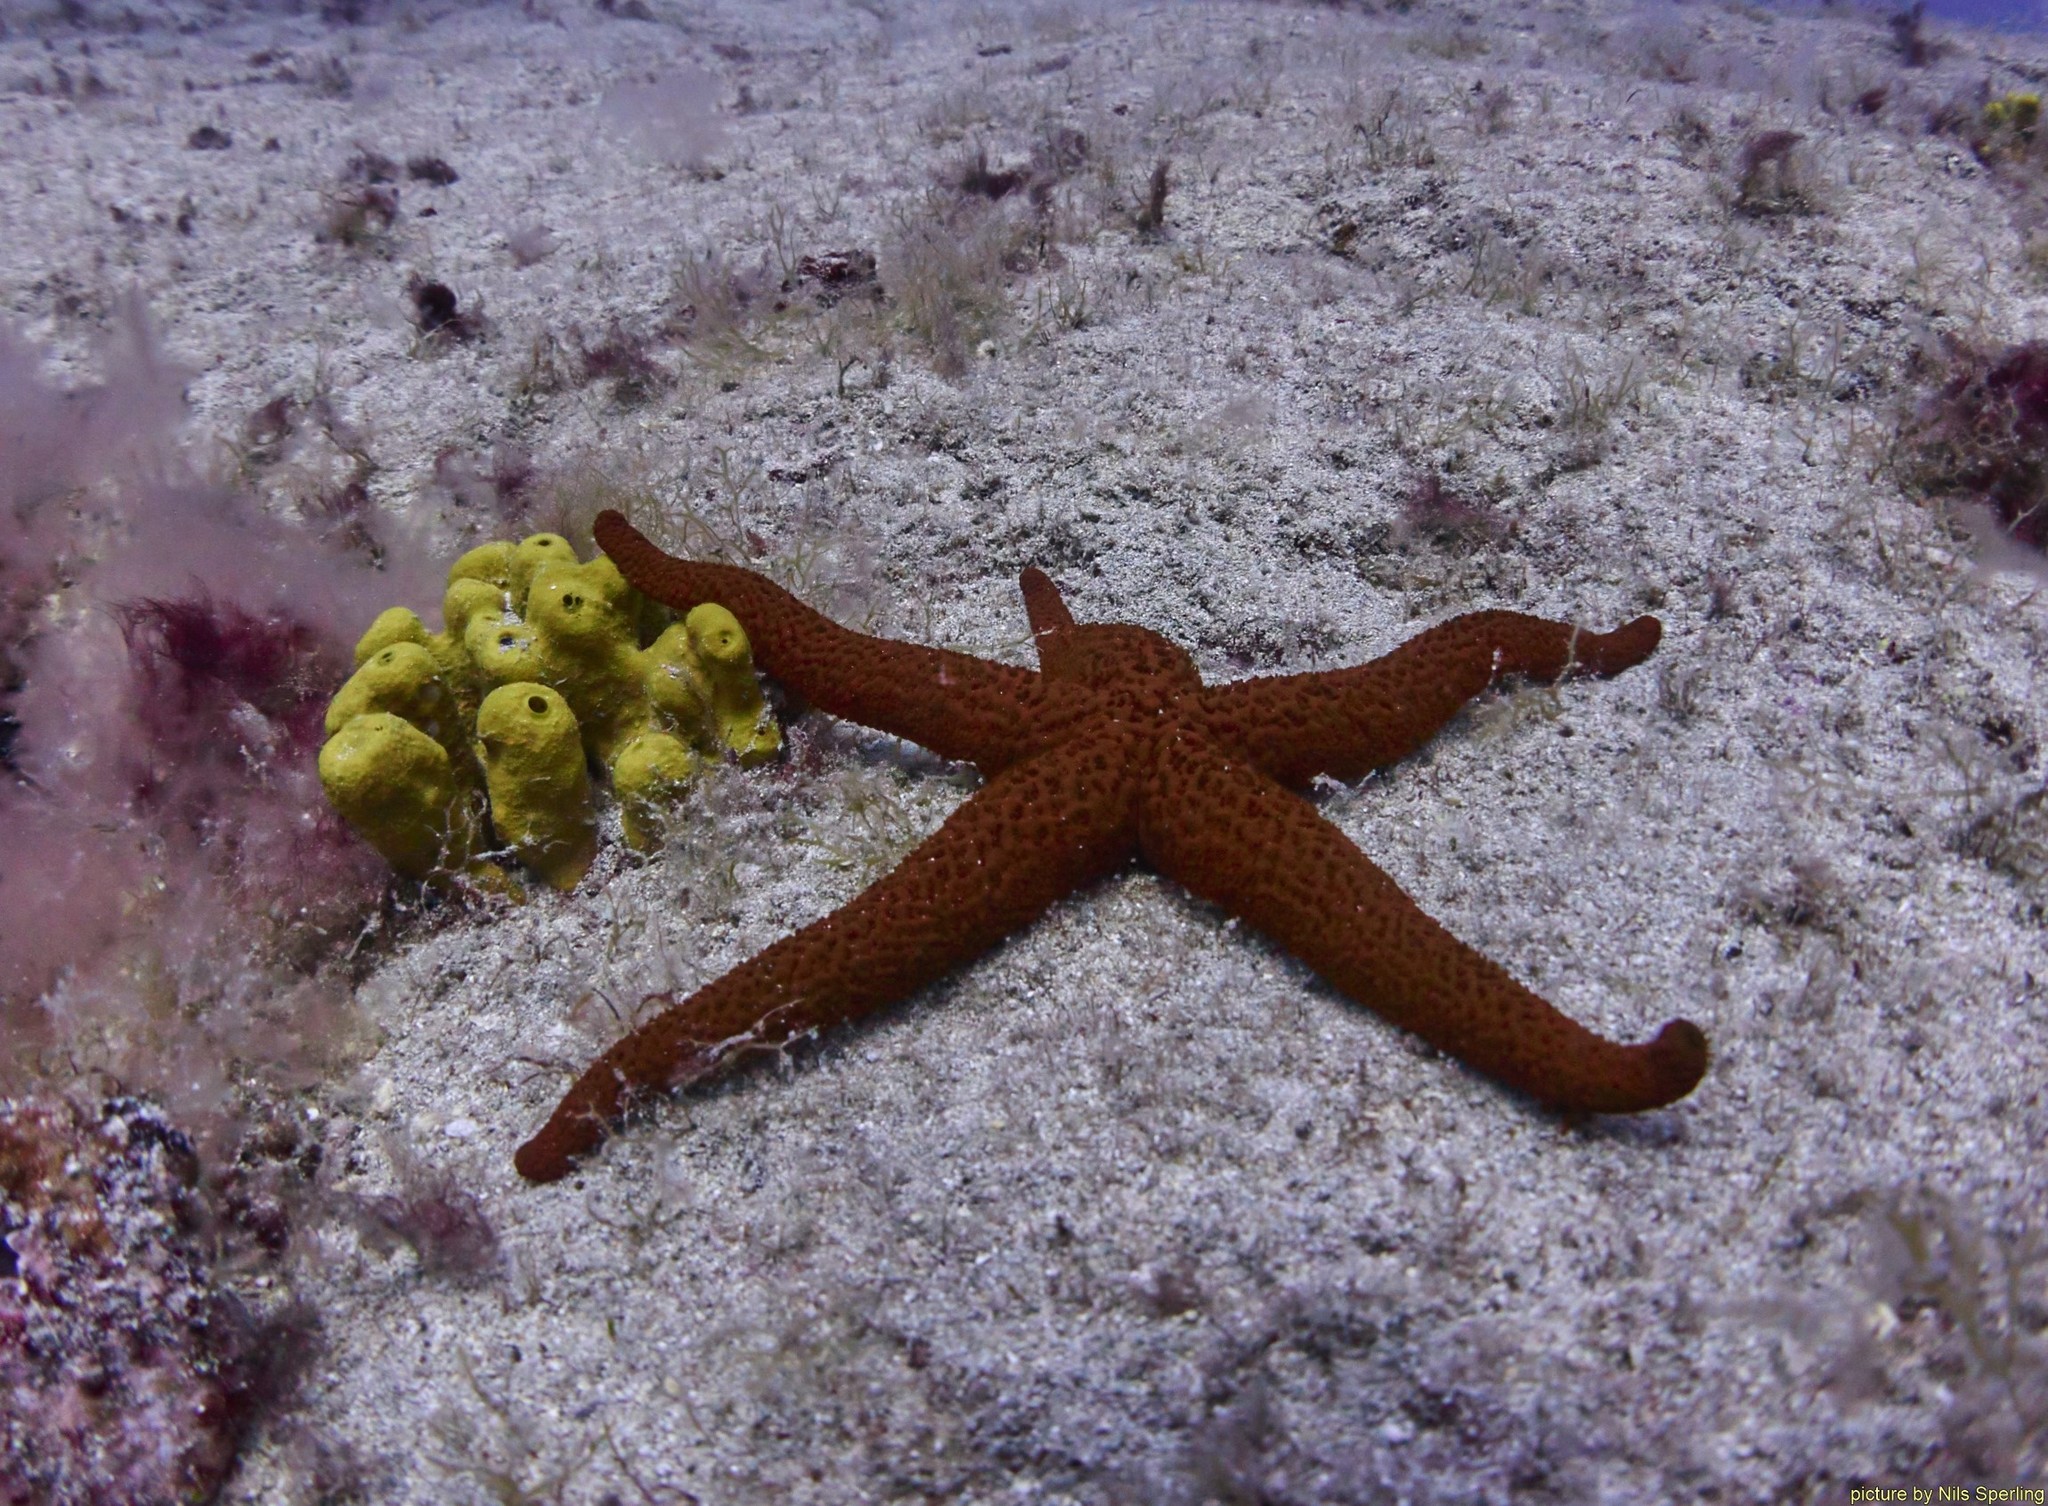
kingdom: Animalia
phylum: Echinodermata
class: Asteroidea
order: Spinulosida
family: Echinasteridae
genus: Echinaster
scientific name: Echinaster sepositus
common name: Red starfish
